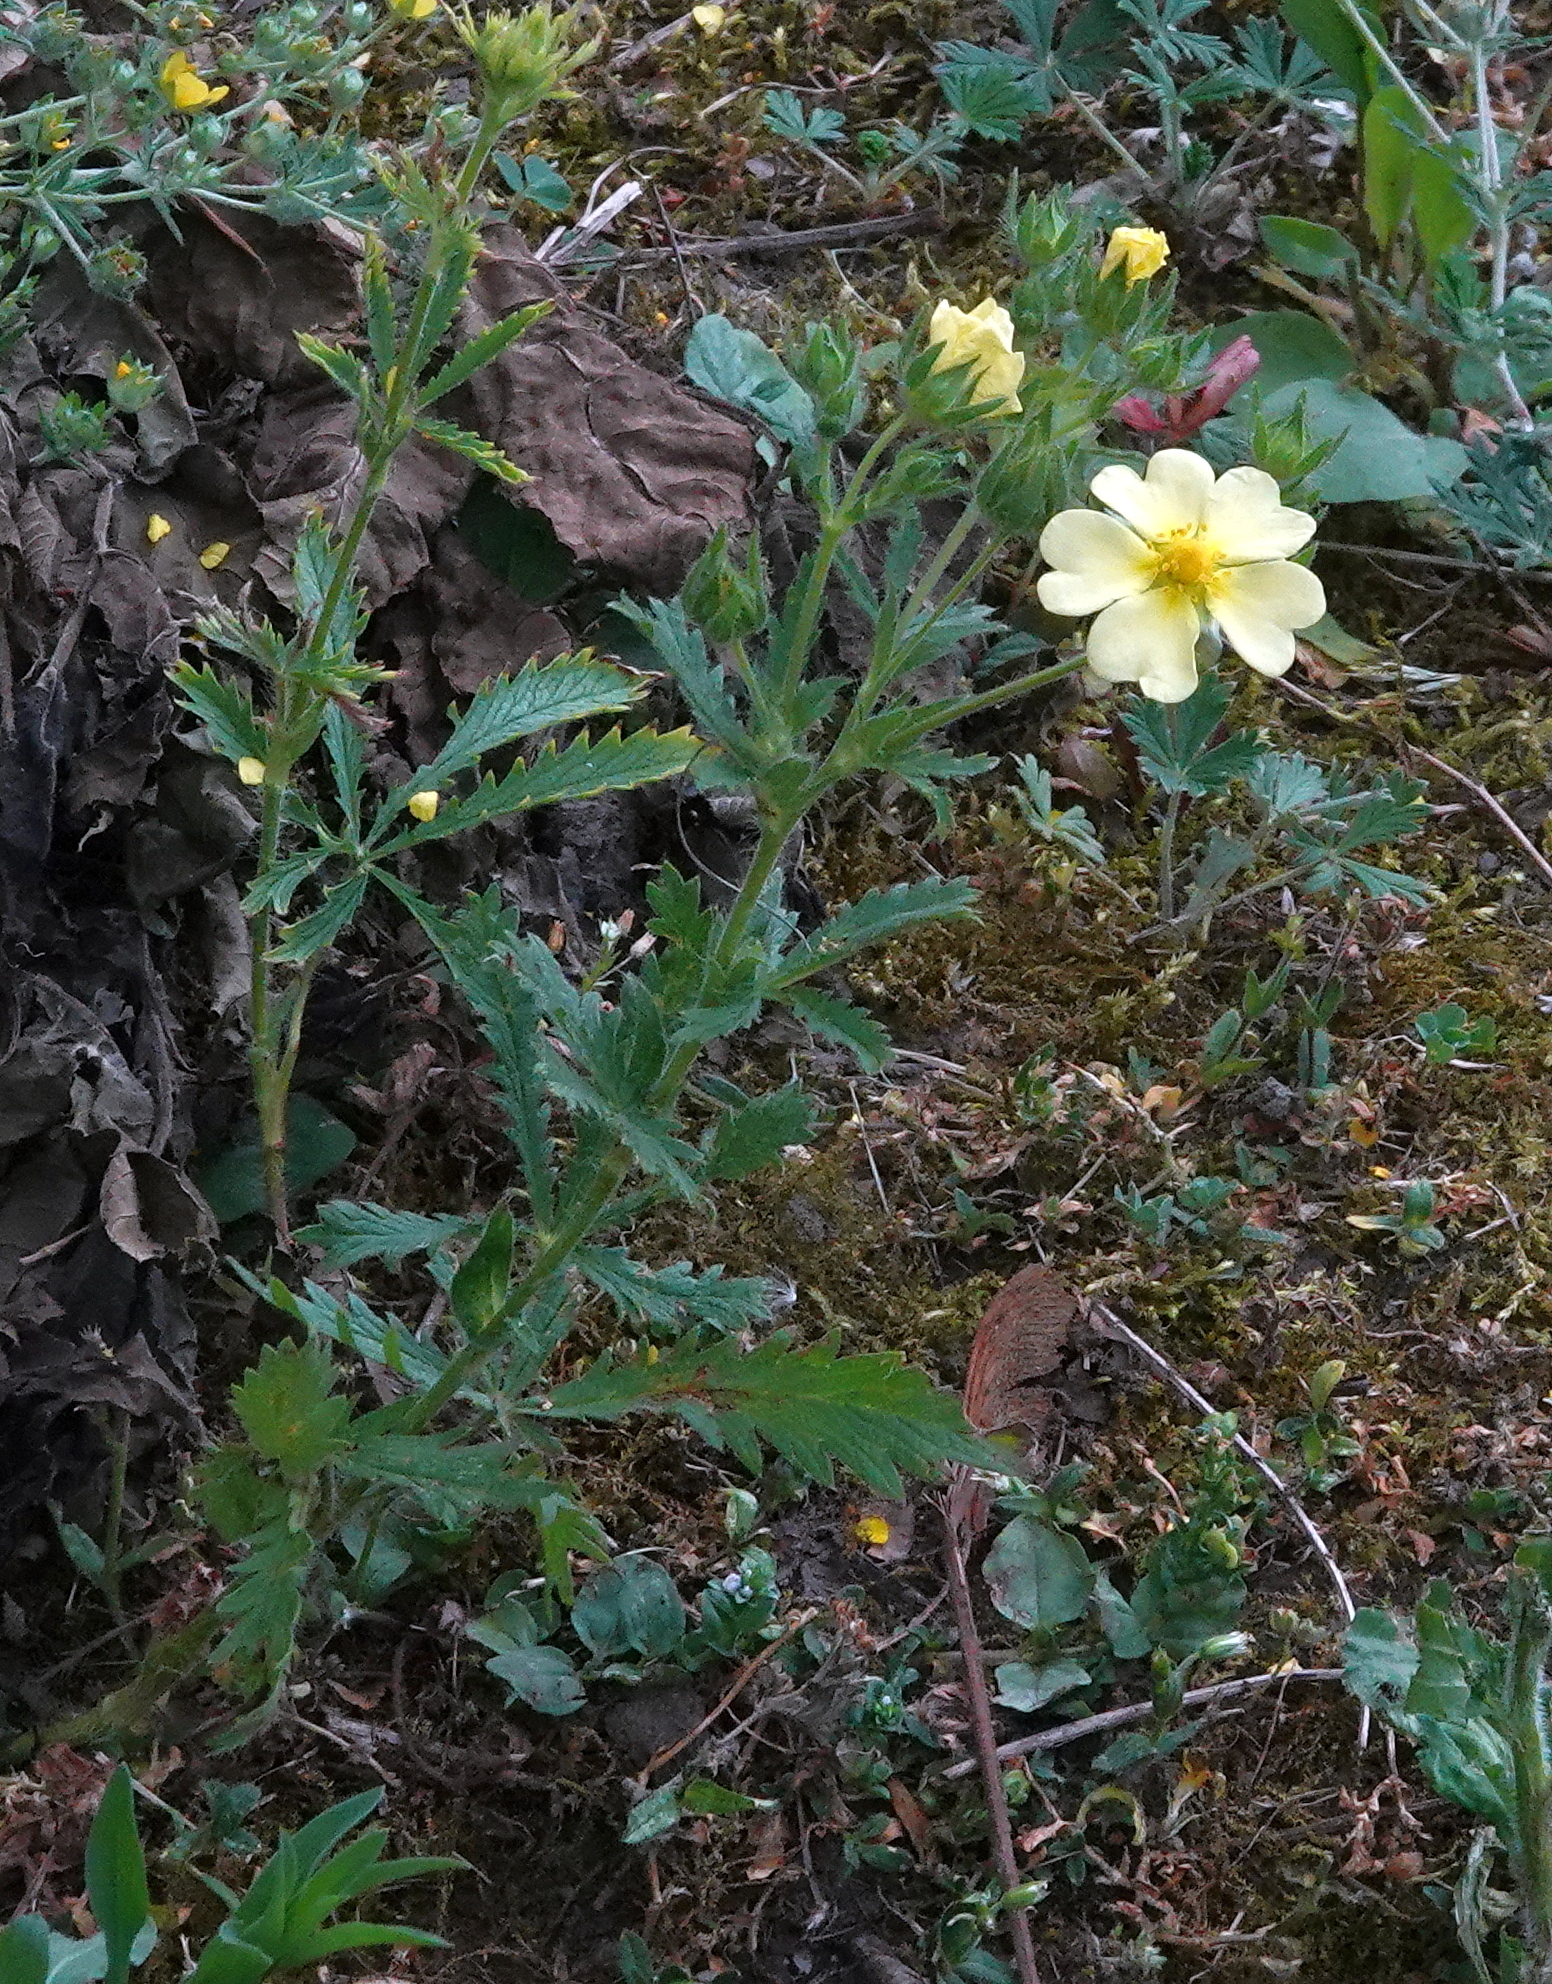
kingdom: Plantae
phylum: Tracheophyta
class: Magnoliopsida
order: Rosales
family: Rosaceae
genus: Potentilla
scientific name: Potentilla recta
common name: Sulphur cinquefoil
